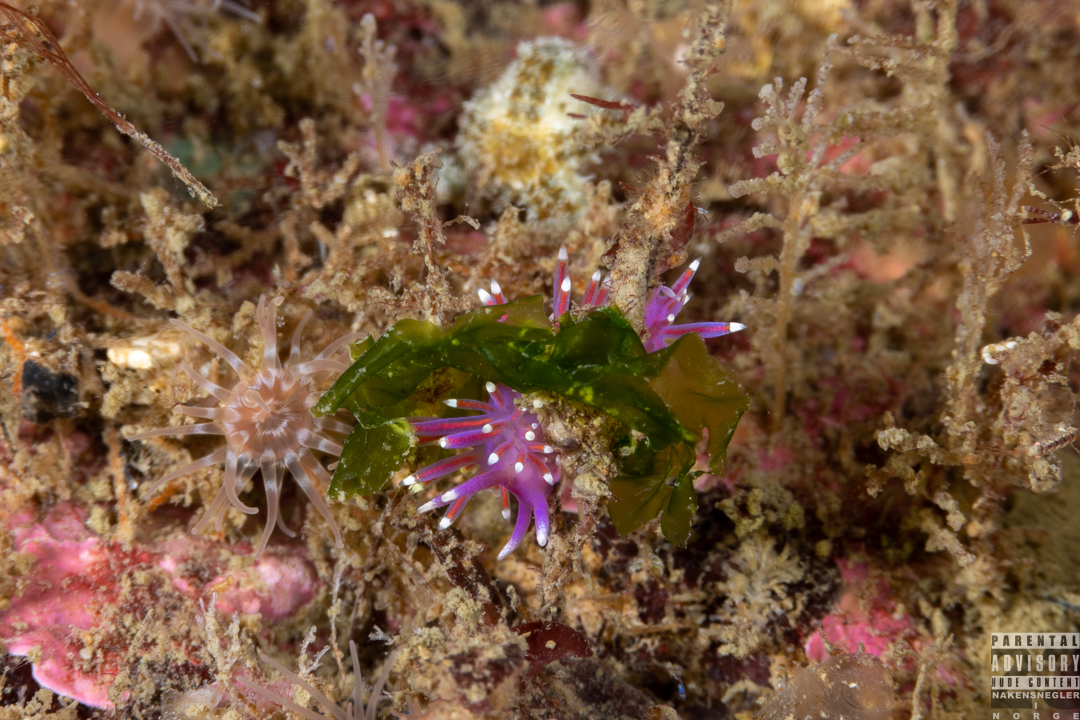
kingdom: Animalia
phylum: Mollusca
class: Gastropoda
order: Nudibranchia
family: Flabellinidae
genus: Edmundsella
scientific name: Edmundsella pedata
